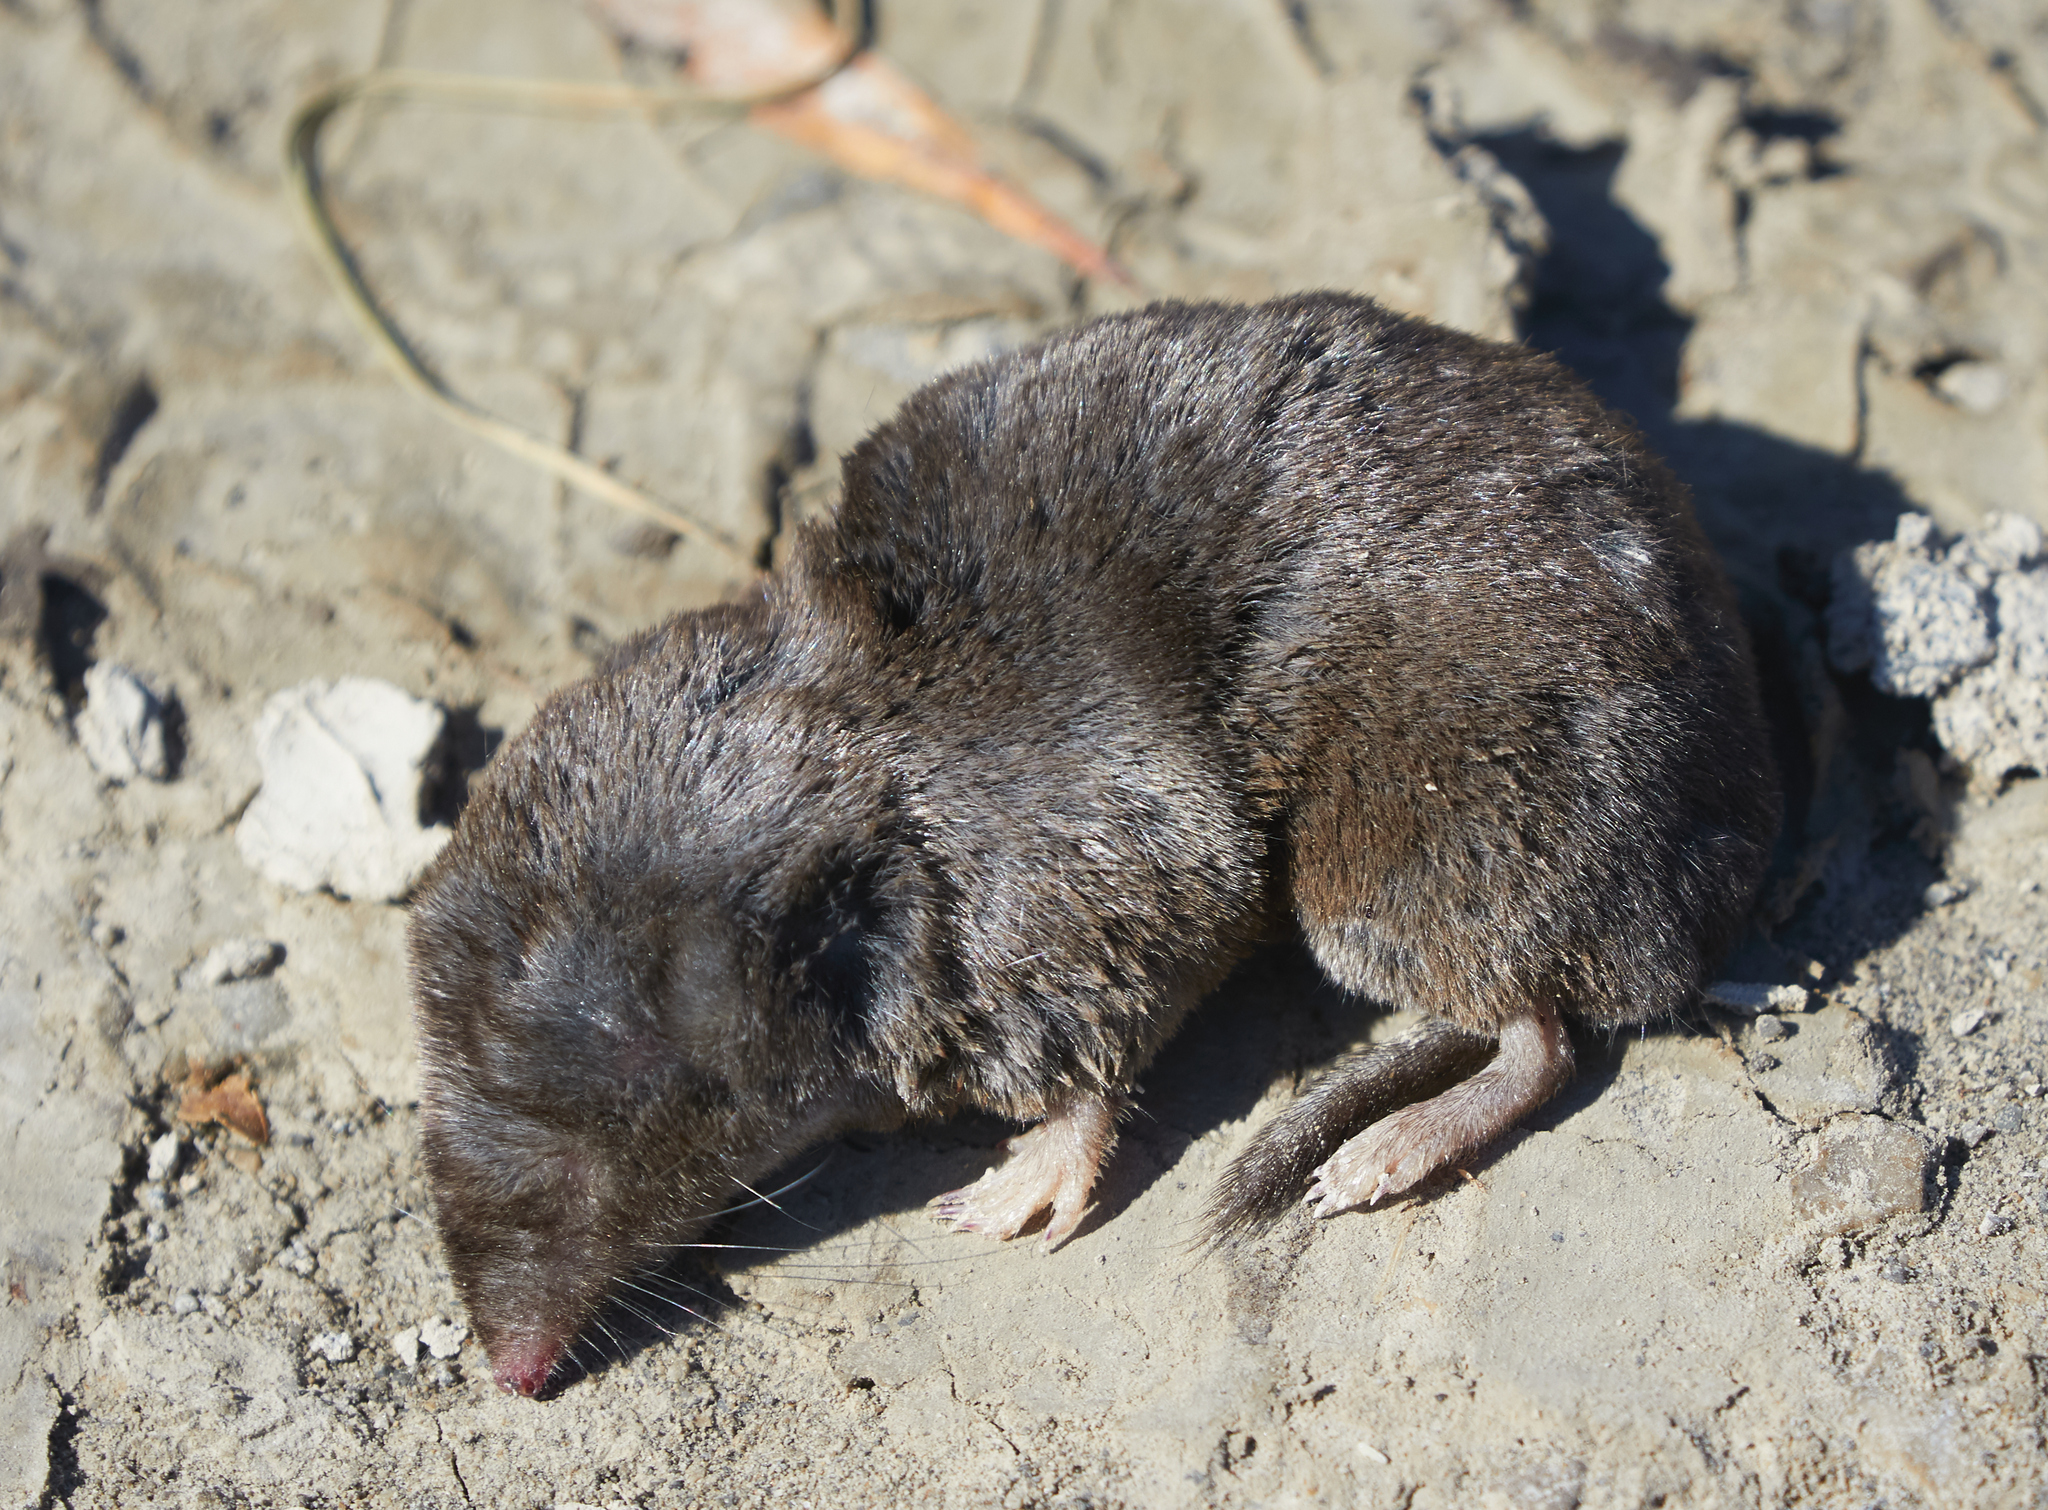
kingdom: Animalia
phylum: Chordata
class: Mammalia
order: Soricomorpha
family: Soricidae
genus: Blarina
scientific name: Blarina brevicauda
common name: Northern short-tailed shrew
